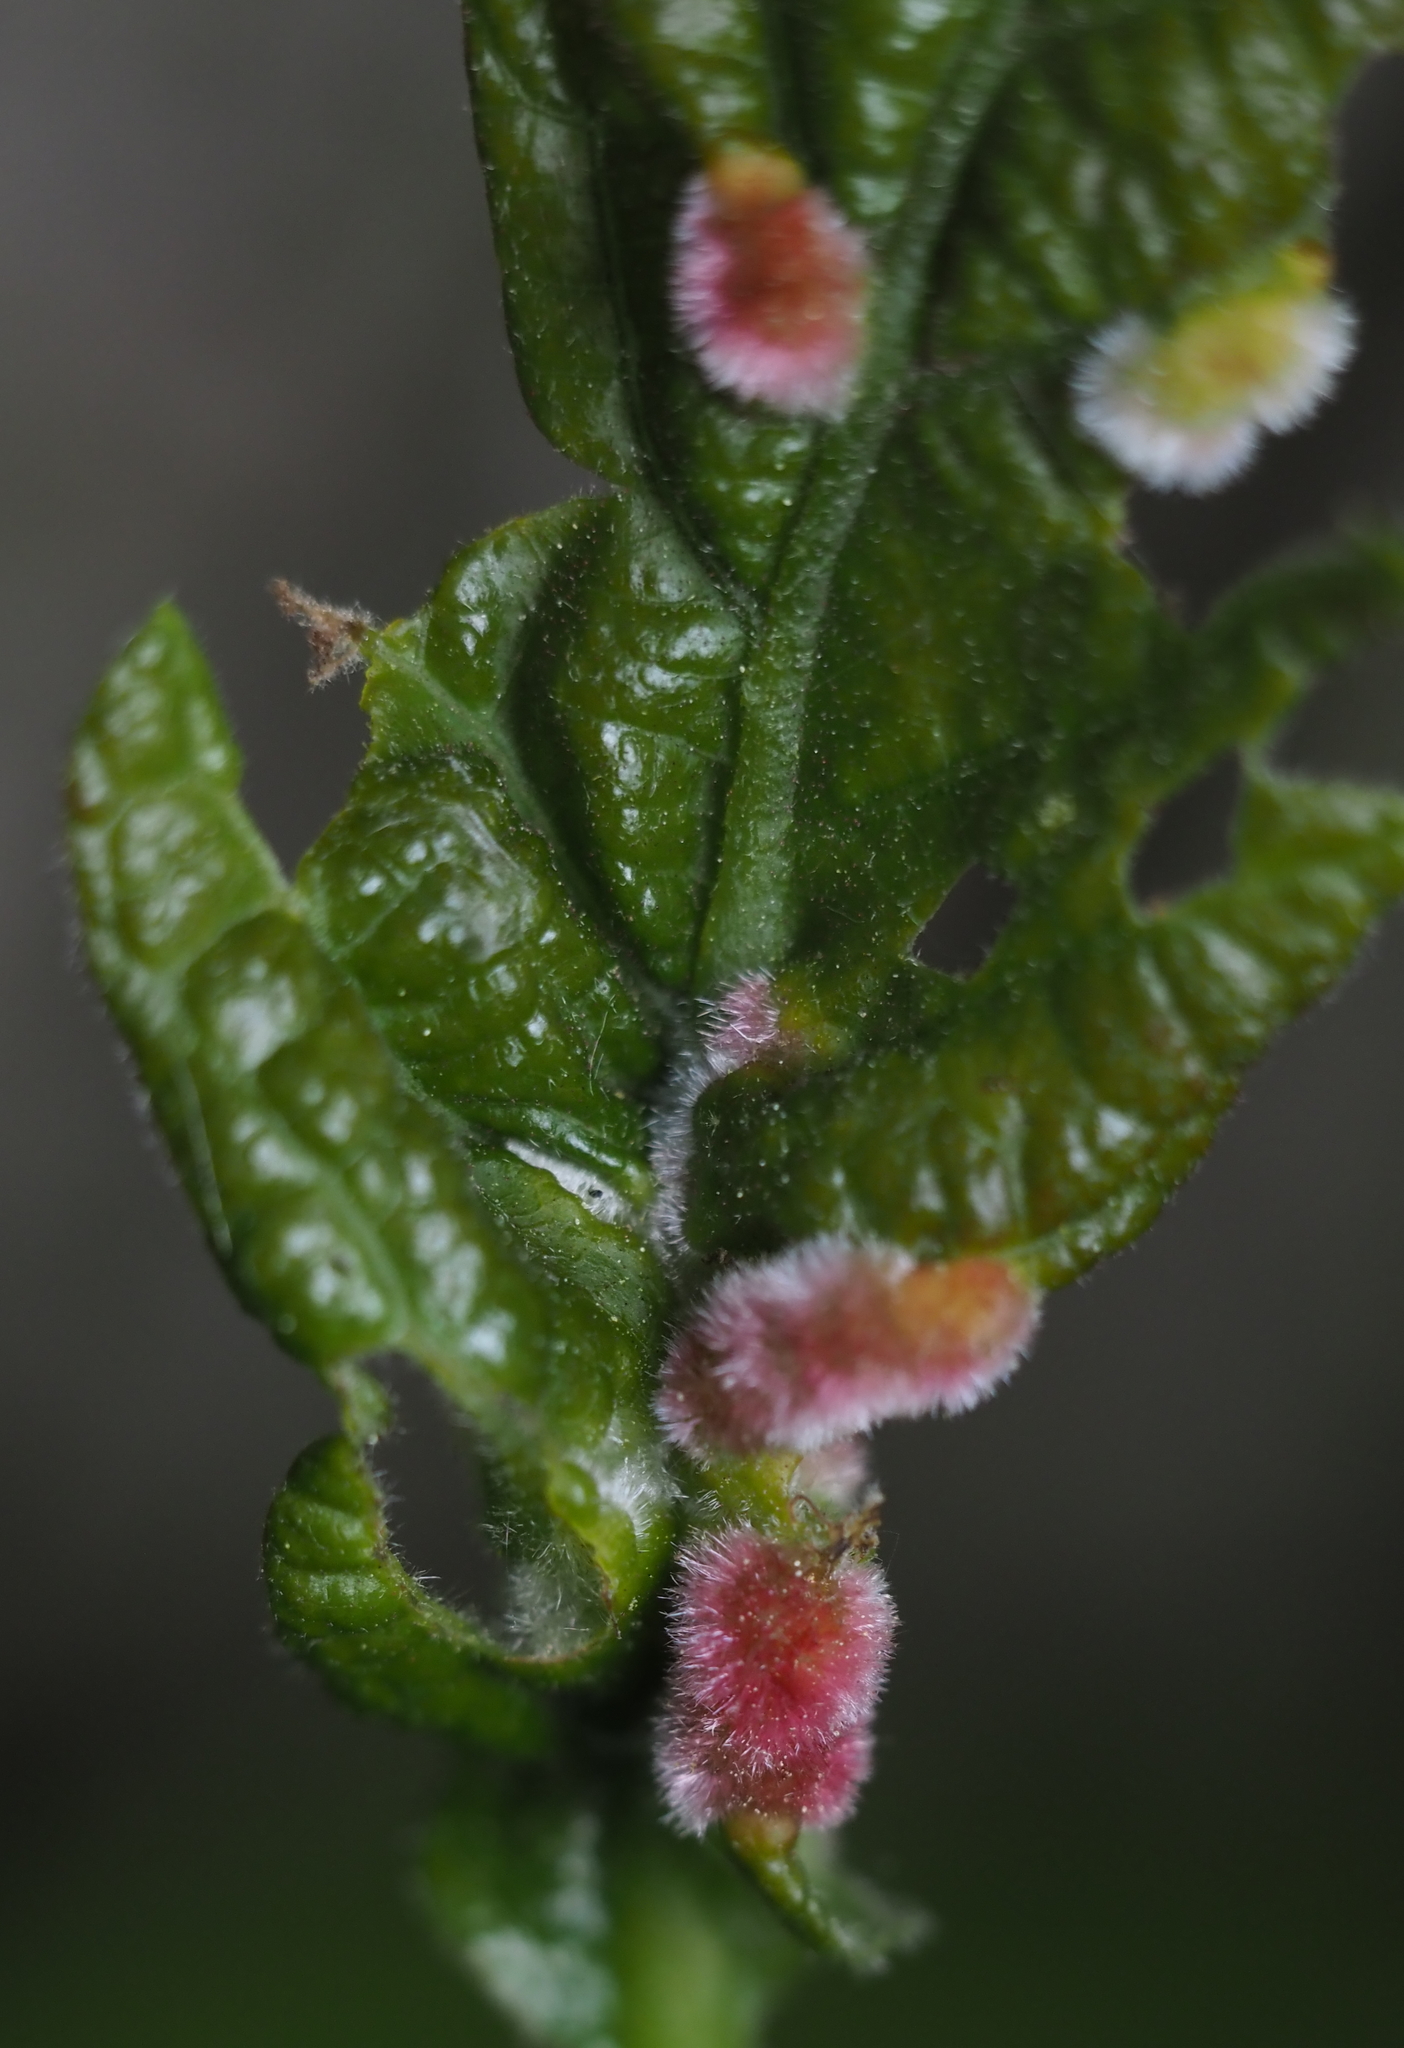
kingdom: Animalia
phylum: Arthropoda
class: Insecta
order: Diptera
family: Cecidomyiidae
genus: Macrodiplosis
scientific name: Macrodiplosis niveipila
